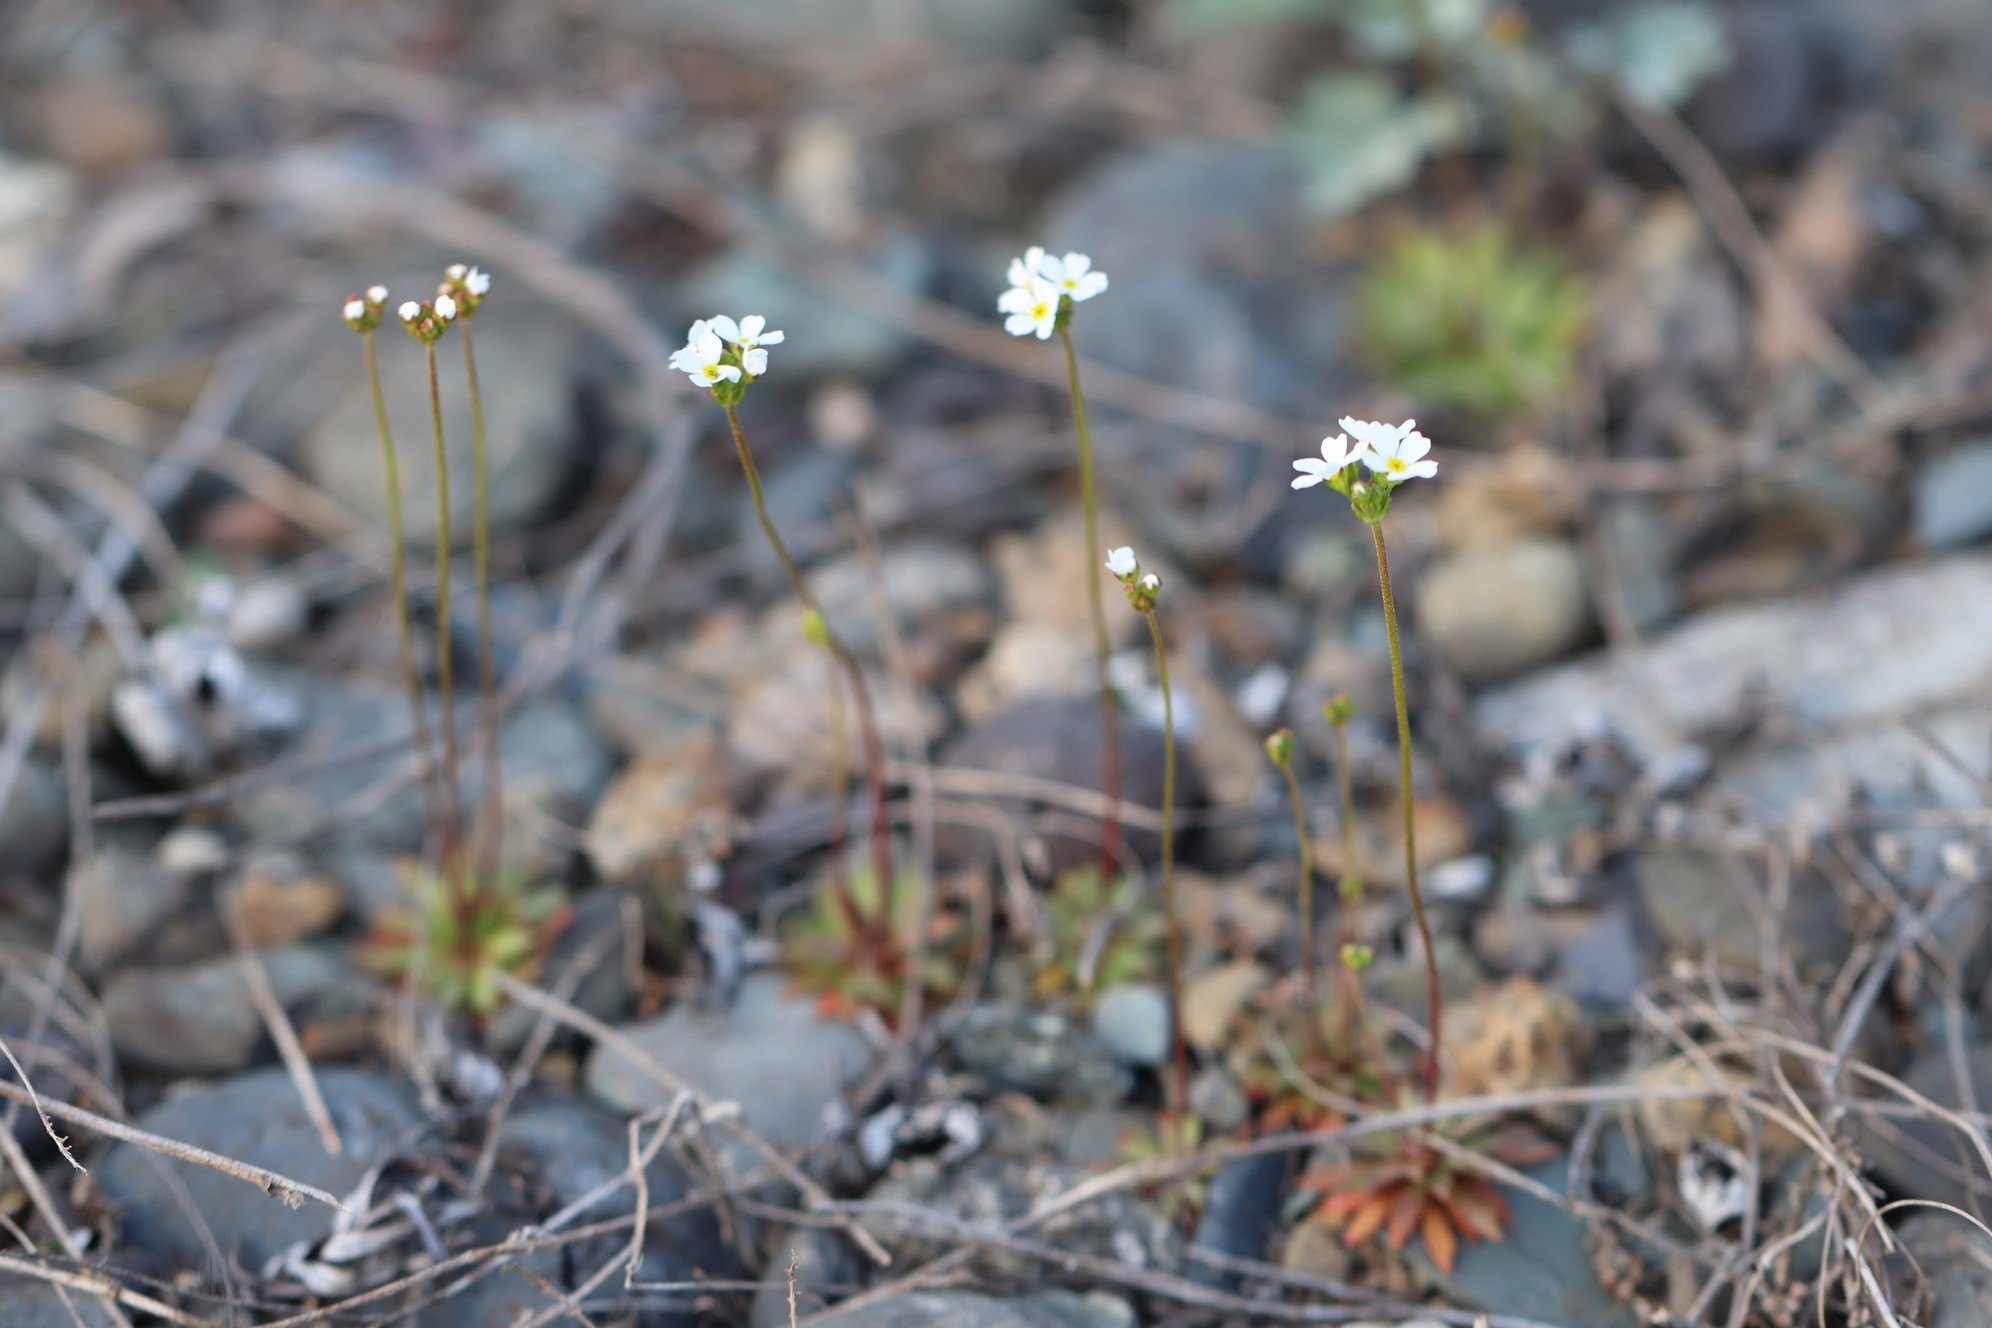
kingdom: Plantae
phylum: Tracheophyta
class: Magnoliopsida
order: Ericales
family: Primulaceae
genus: Androsace
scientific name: Androsace septentrionalis
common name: Hairy northern fairy-candelabra
